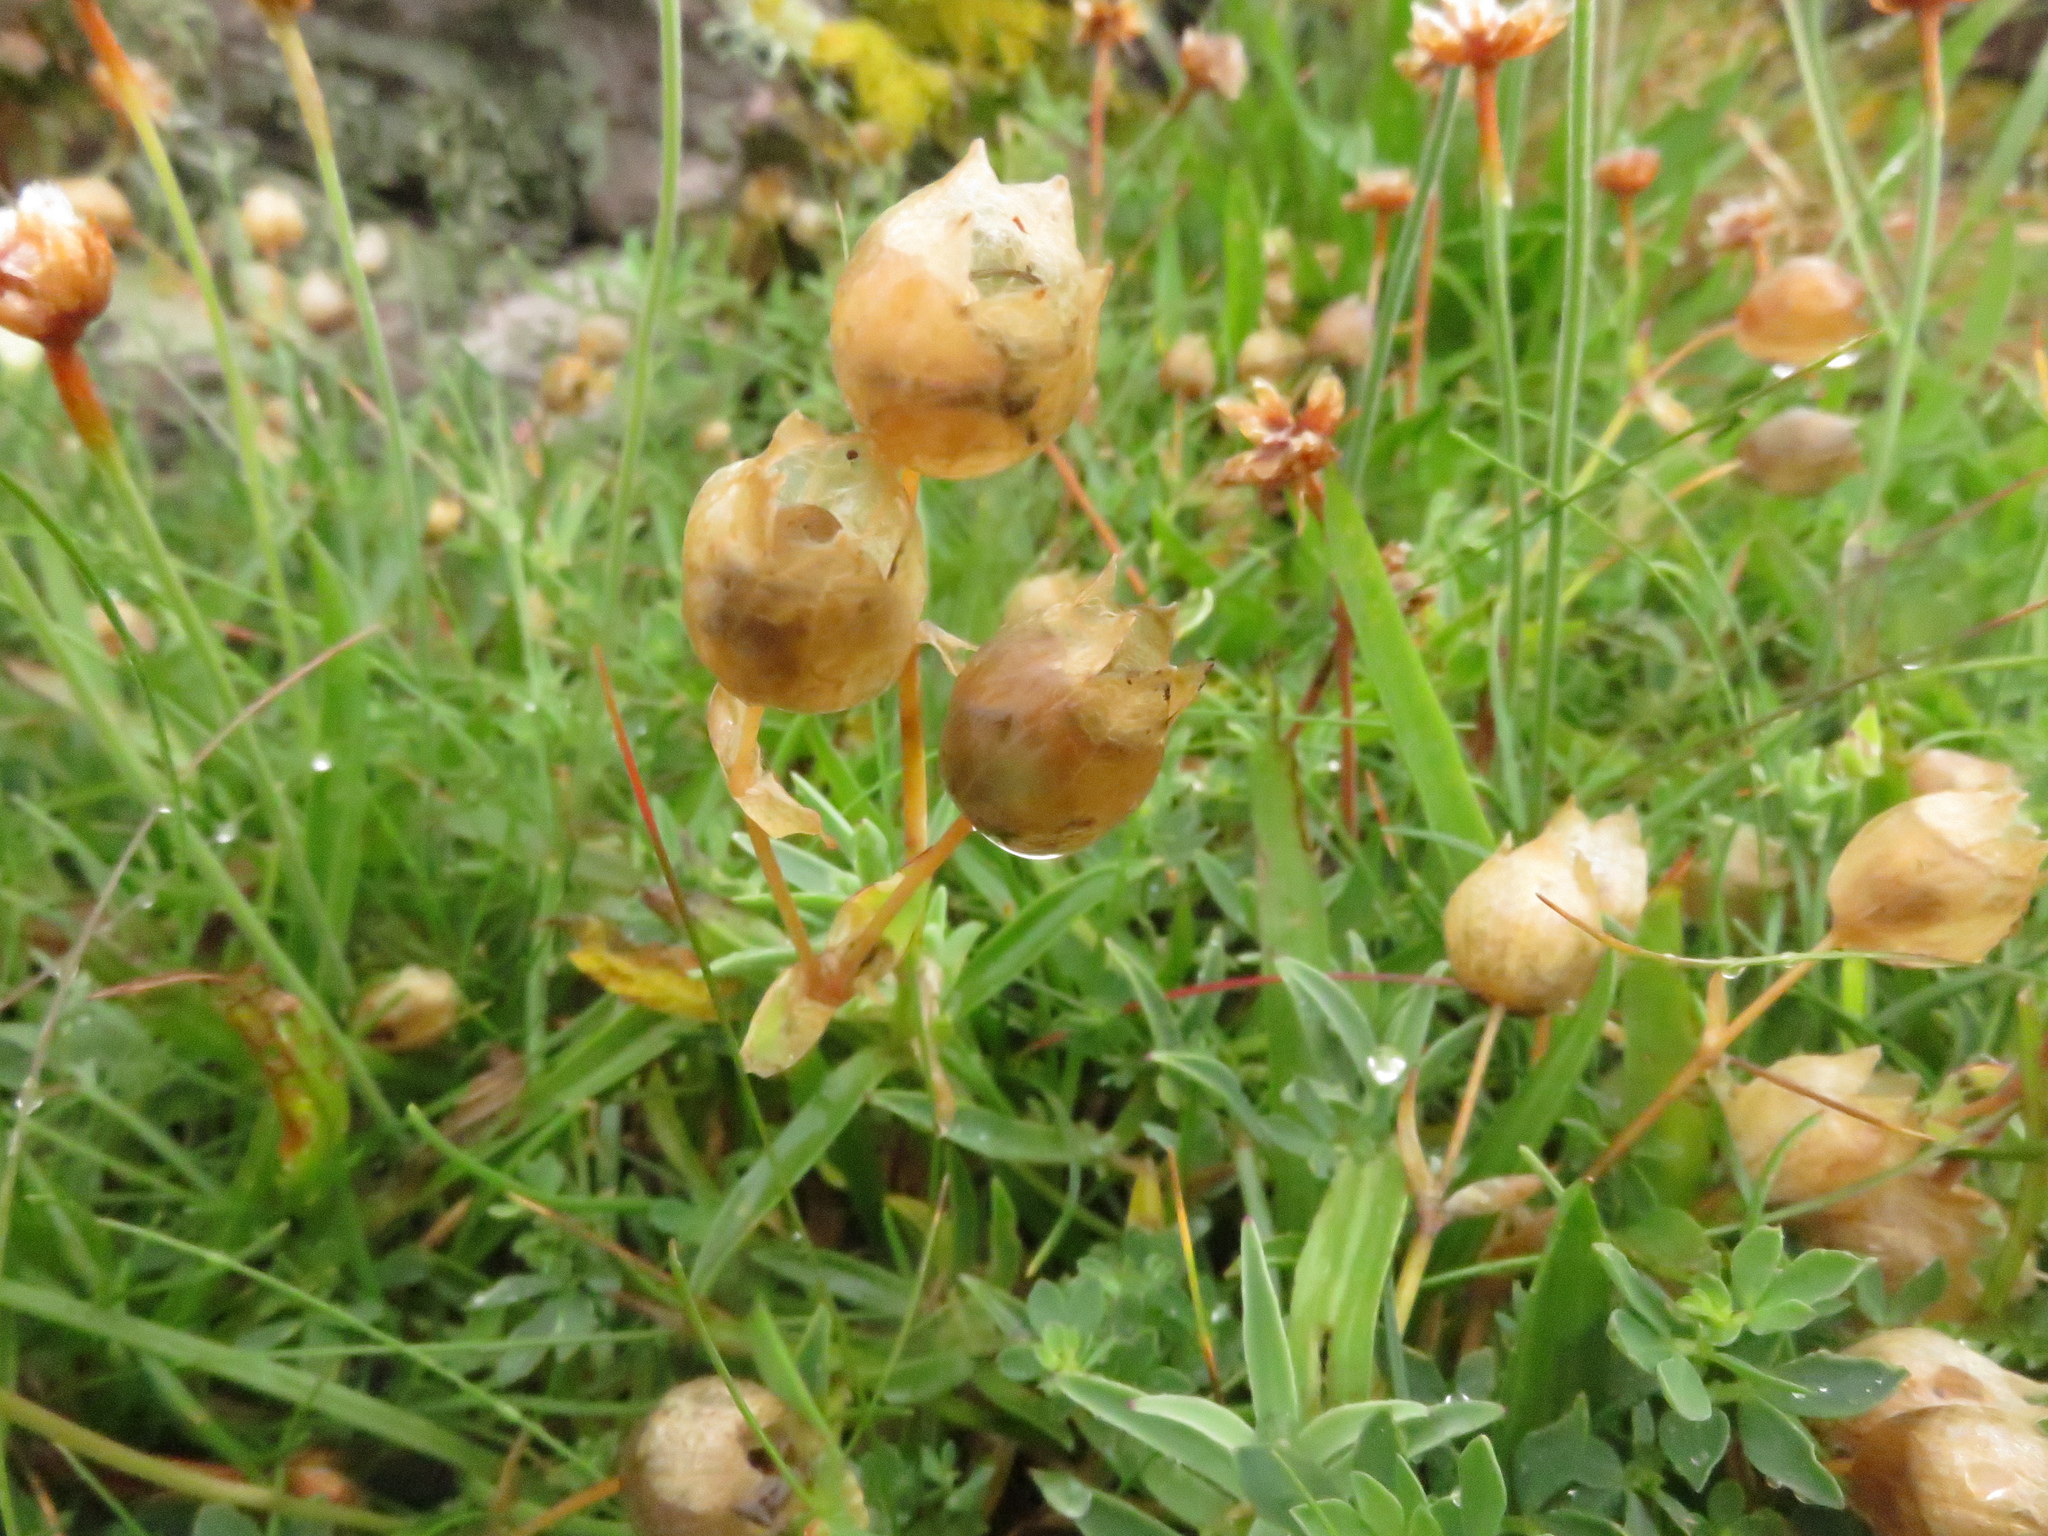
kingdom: Plantae
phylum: Tracheophyta
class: Magnoliopsida
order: Caryophyllales
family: Caryophyllaceae
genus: Silene
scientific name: Silene uniflora
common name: Sea campion
